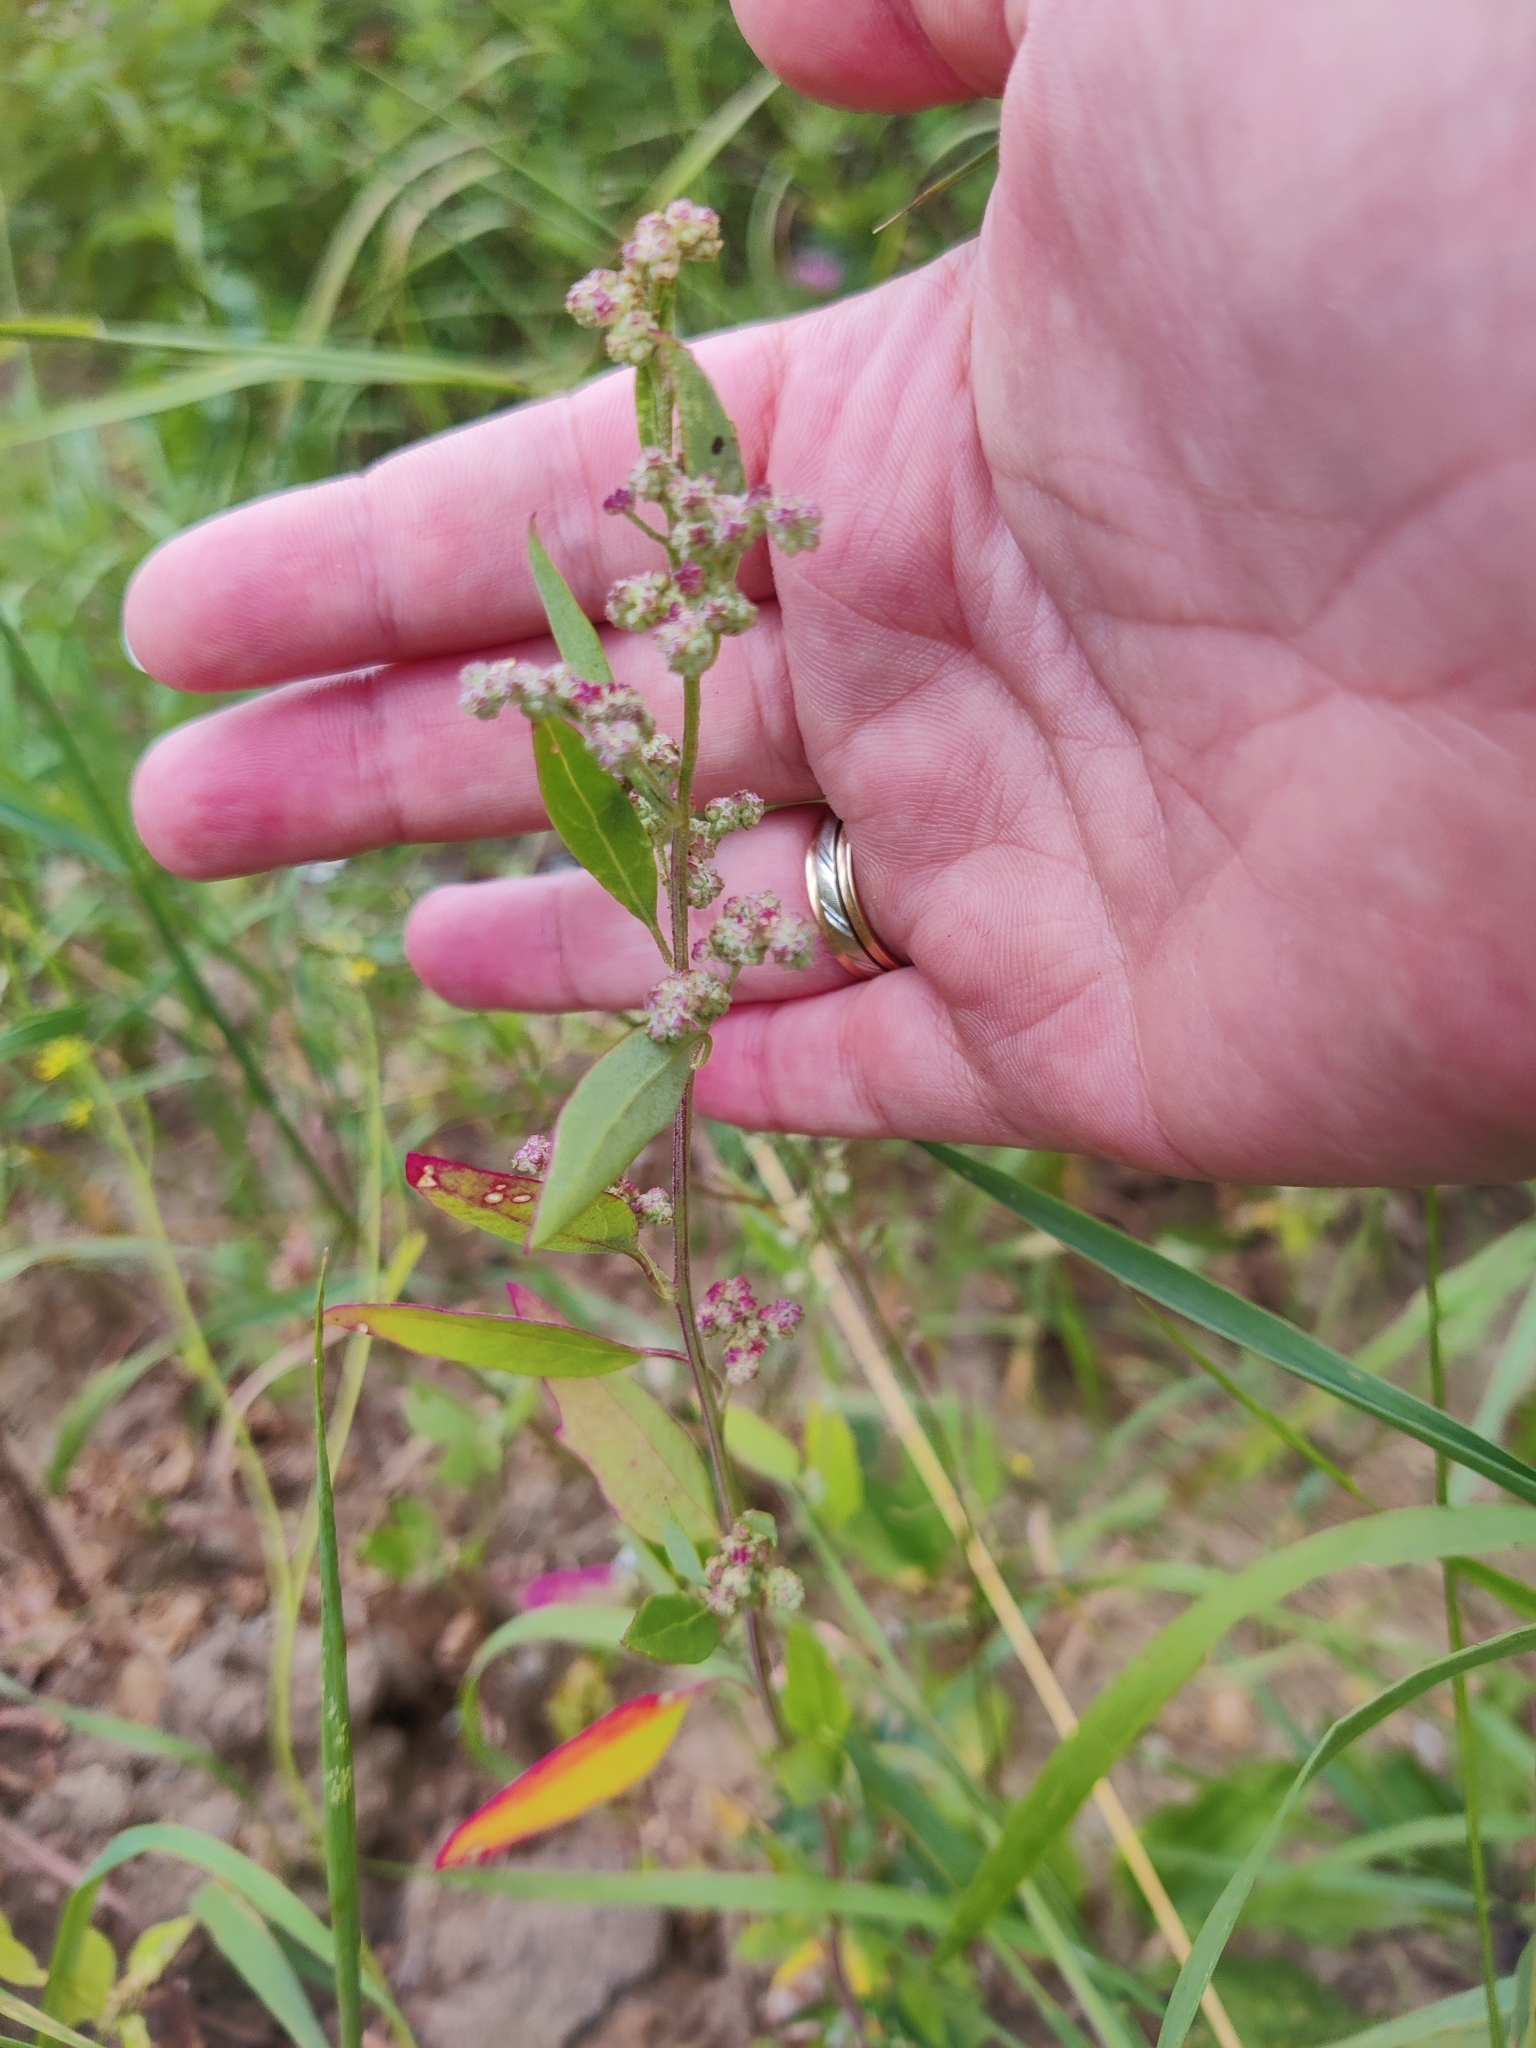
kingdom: Plantae
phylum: Tracheophyta
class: Magnoliopsida
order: Caryophyllales
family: Amaranthaceae
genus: Chenopodium
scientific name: Chenopodium album
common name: Fat-hen
